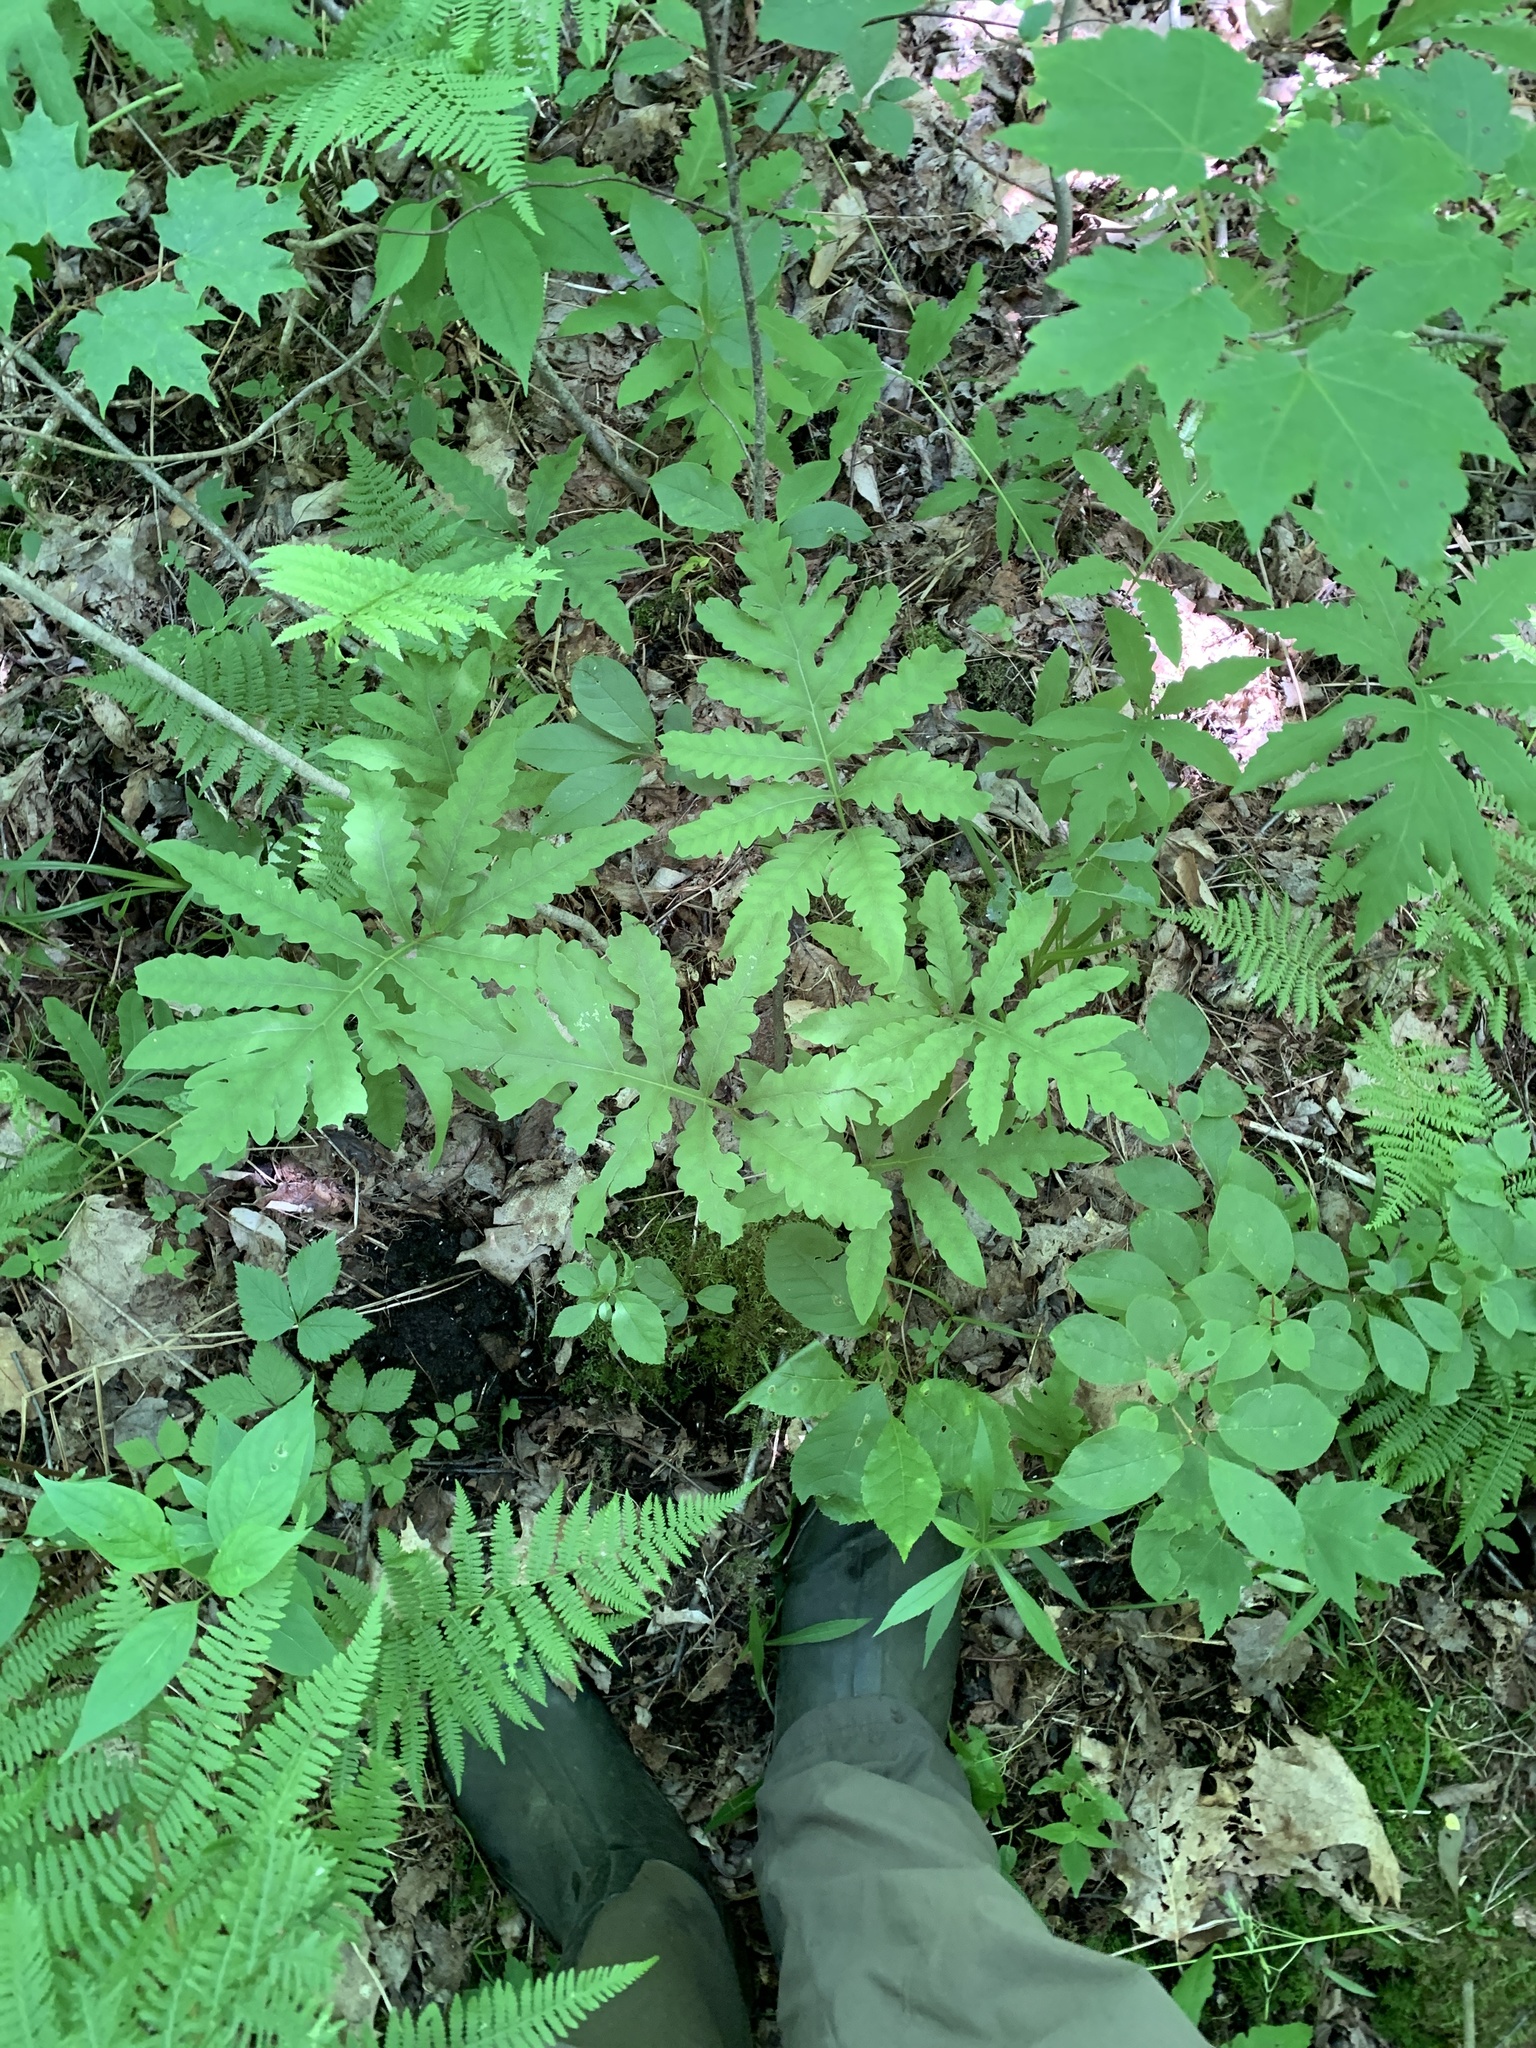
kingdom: Plantae
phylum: Tracheophyta
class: Polypodiopsida
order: Polypodiales
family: Onocleaceae
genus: Onoclea
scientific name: Onoclea sensibilis
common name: Sensitive fern
